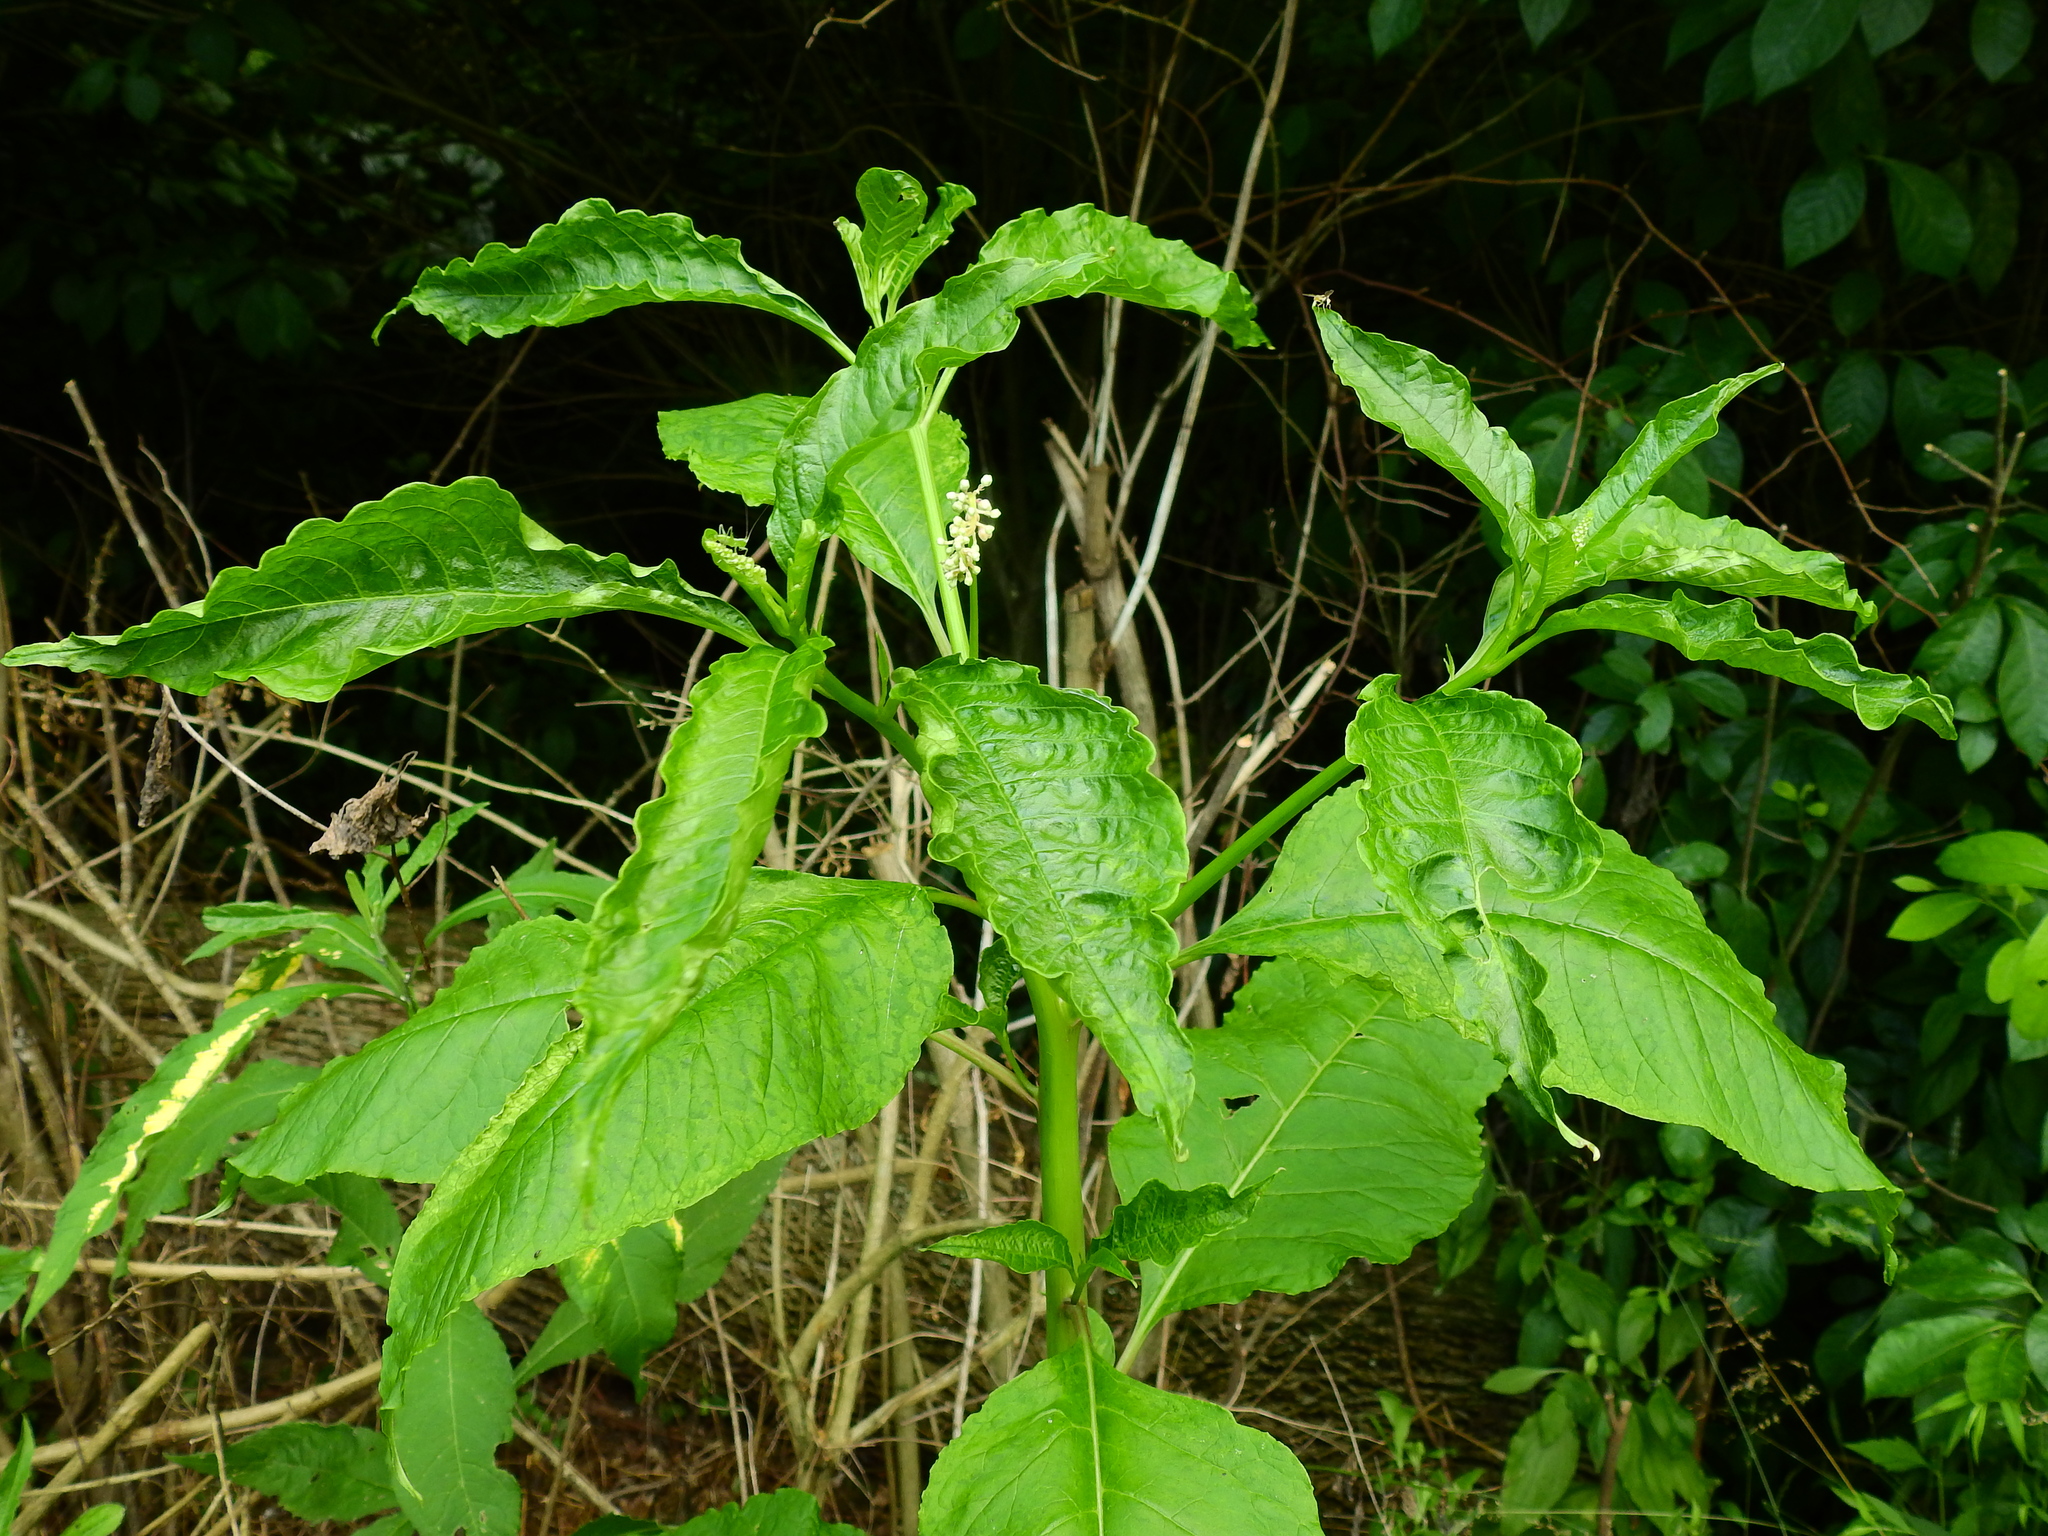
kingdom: Plantae
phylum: Tracheophyta
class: Magnoliopsida
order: Caryophyllales
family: Phytolaccaceae
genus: Phytolacca
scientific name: Phytolacca americana
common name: American pokeweed
